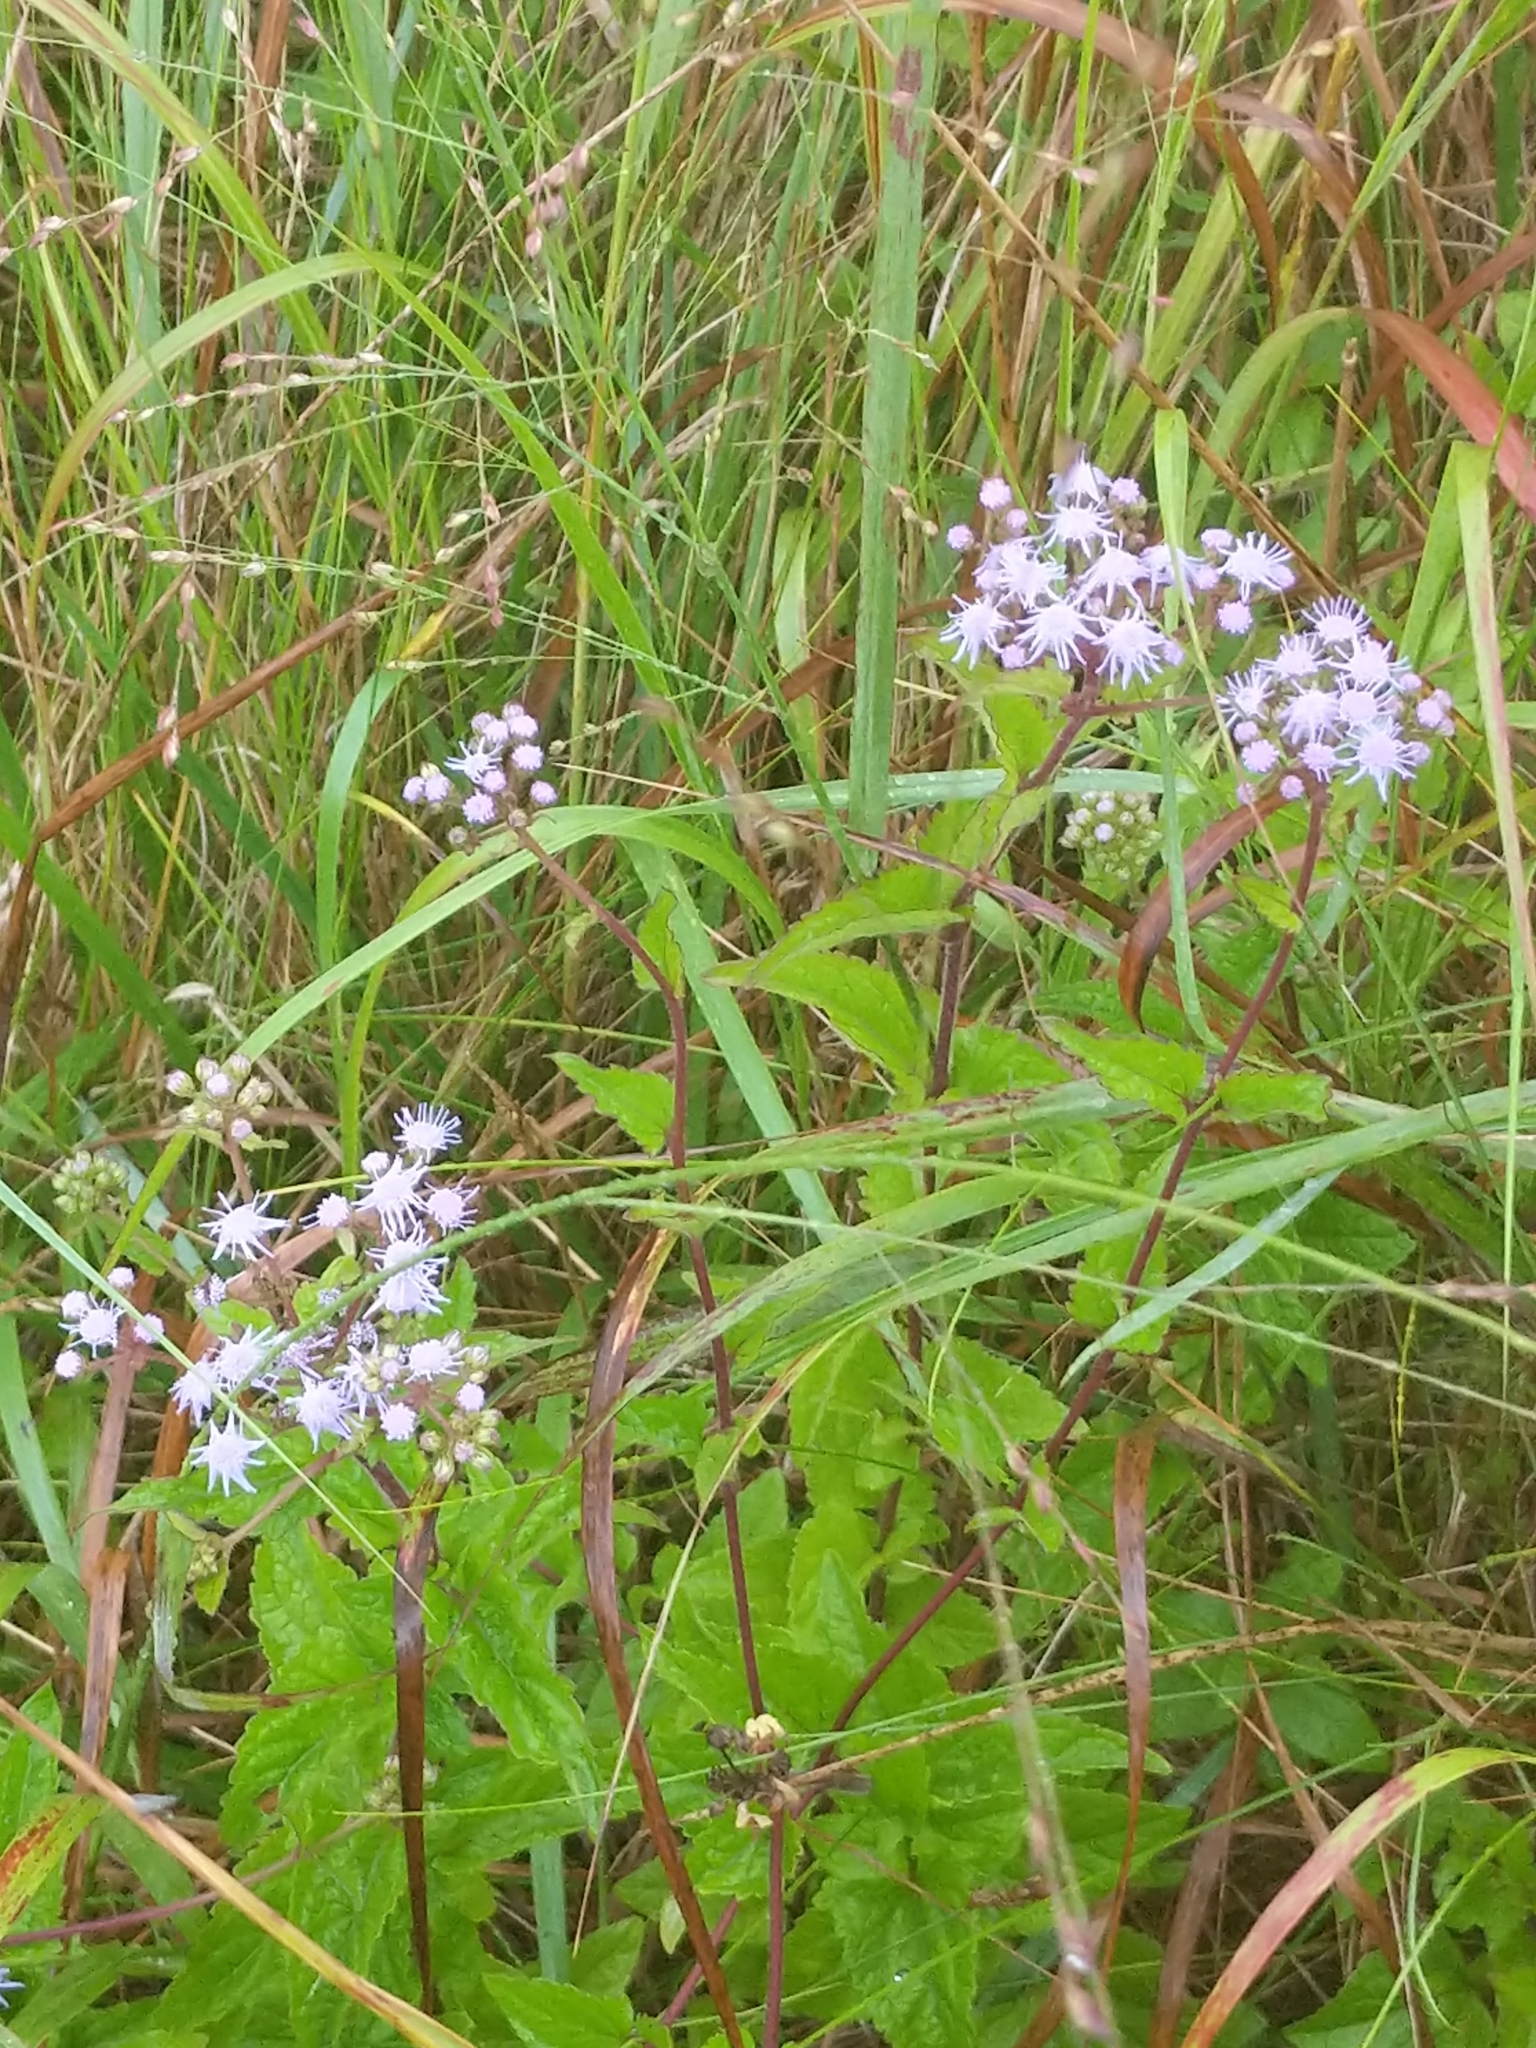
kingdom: Plantae
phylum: Tracheophyta
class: Magnoliopsida
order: Asterales
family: Asteraceae
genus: Conoclinium
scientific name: Conoclinium coelestinum
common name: Blue mistflower
